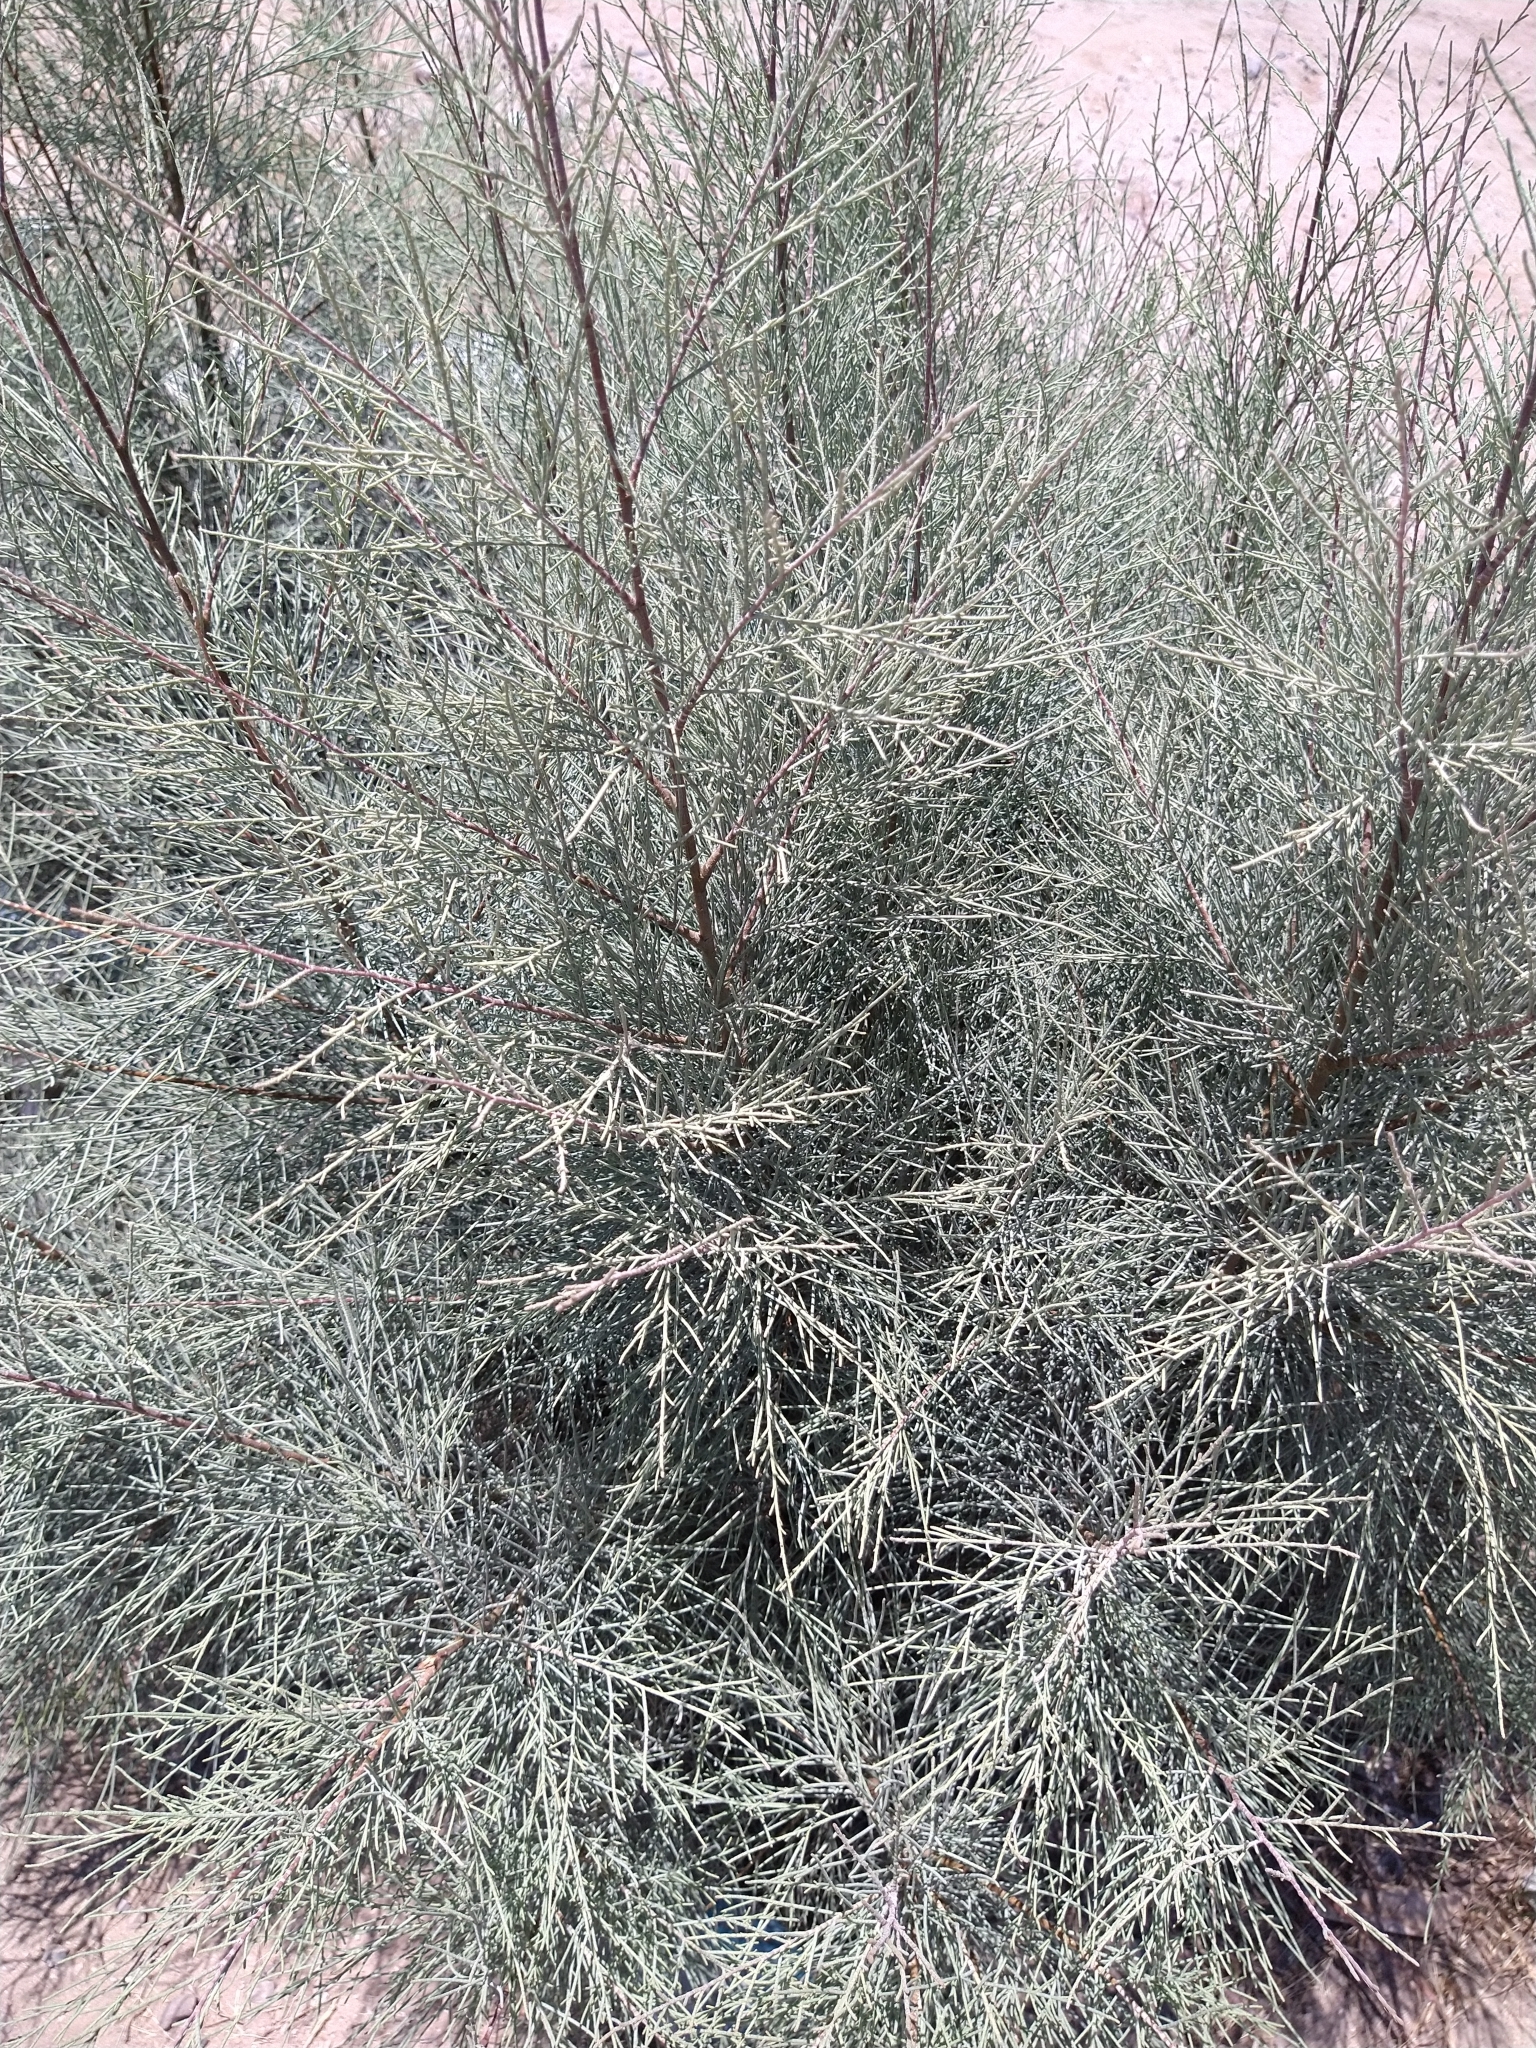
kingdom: Plantae
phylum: Tracheophyta
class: Magnoliopsida
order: Caryophyllales
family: Tamaricaceae
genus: Tamarix
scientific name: Tamarix aphylla
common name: Athel tamarisk
